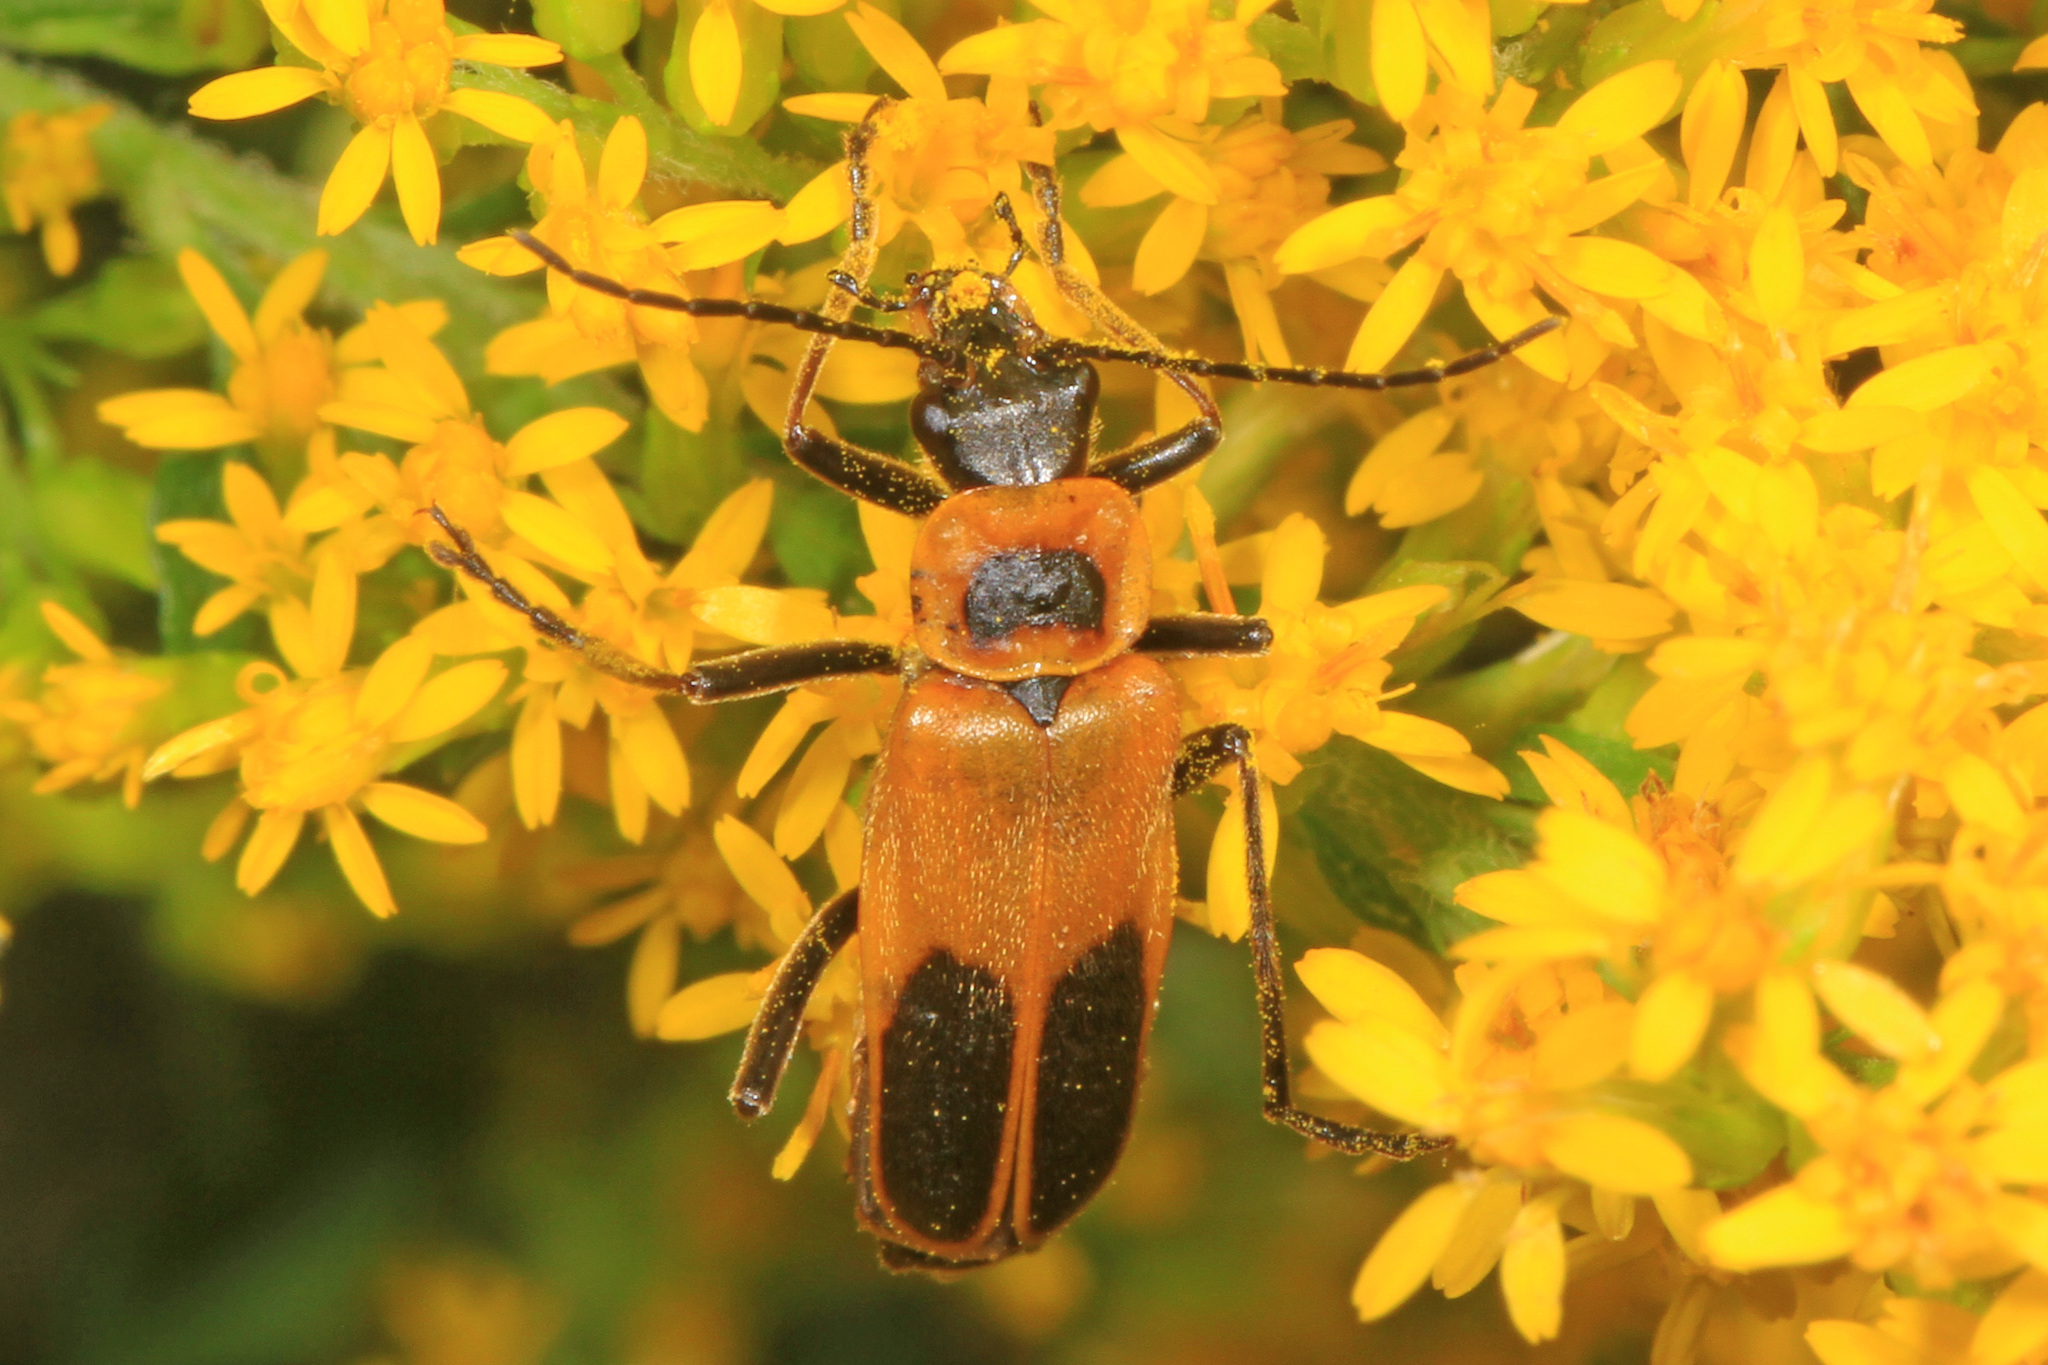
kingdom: Animalia
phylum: Arthropoda
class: Insecta
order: Coleoptera
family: Cantharidae
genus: Chauliognathus
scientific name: Chauliognathus pensylvanicus
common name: Goldenrod soldier beetle
